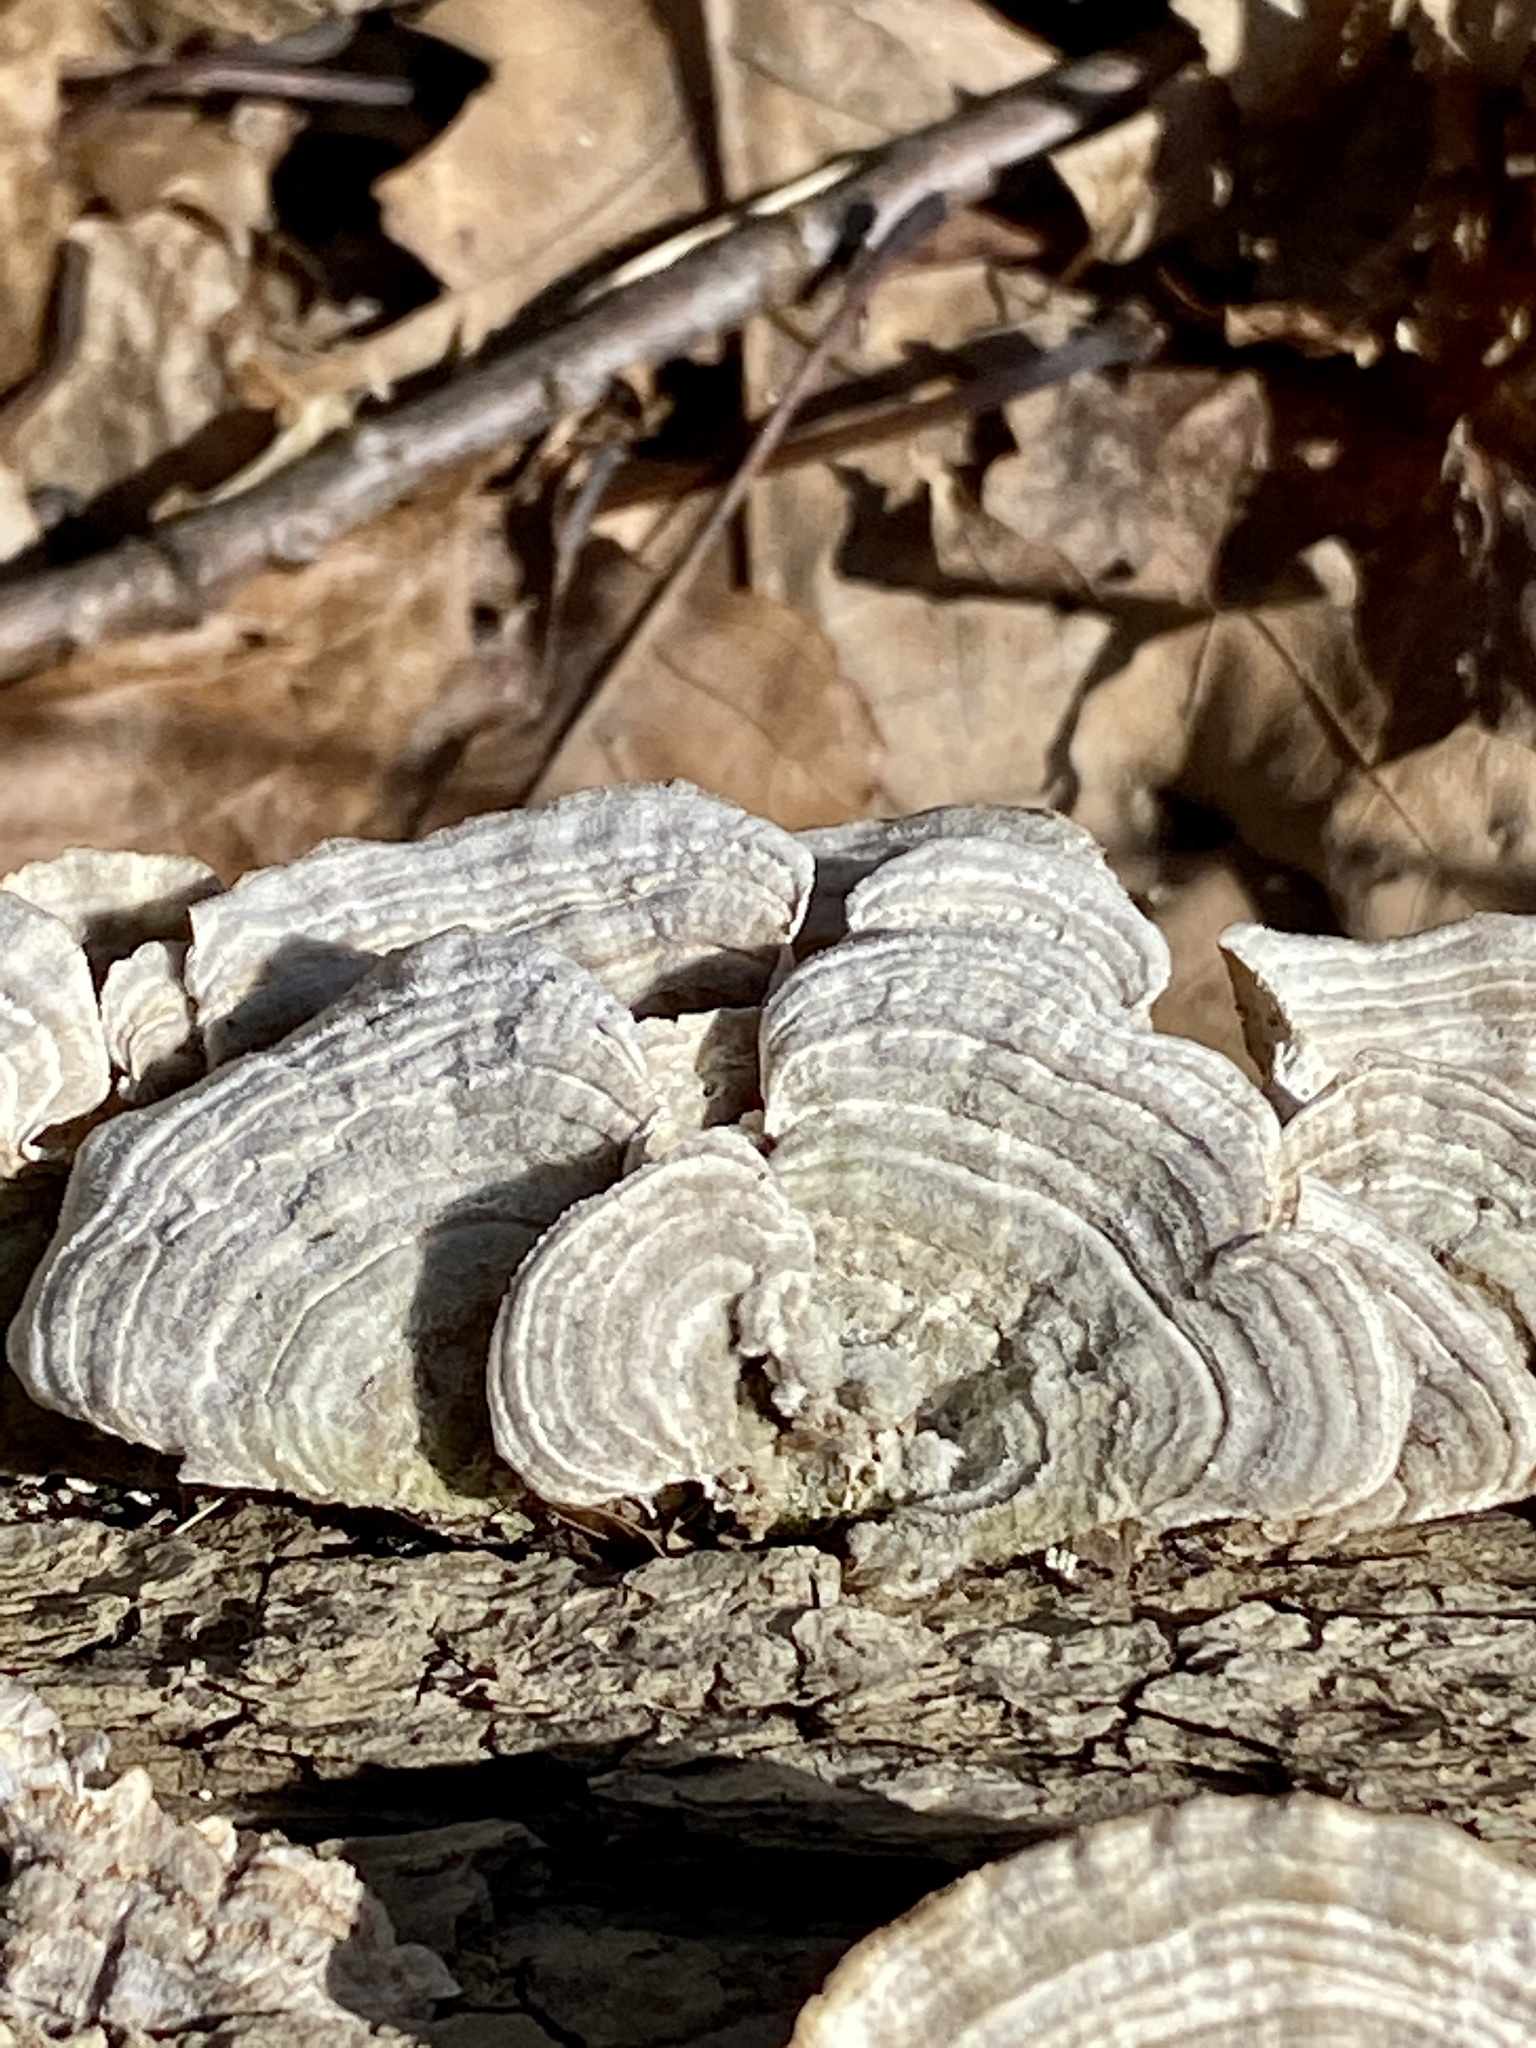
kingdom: Fungi
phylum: Basidiomycota
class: Agaricomycetes
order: Polyporales
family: Polyporaceae
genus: Lenzites
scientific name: Lenzites betulinus
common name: Birch mazegill
